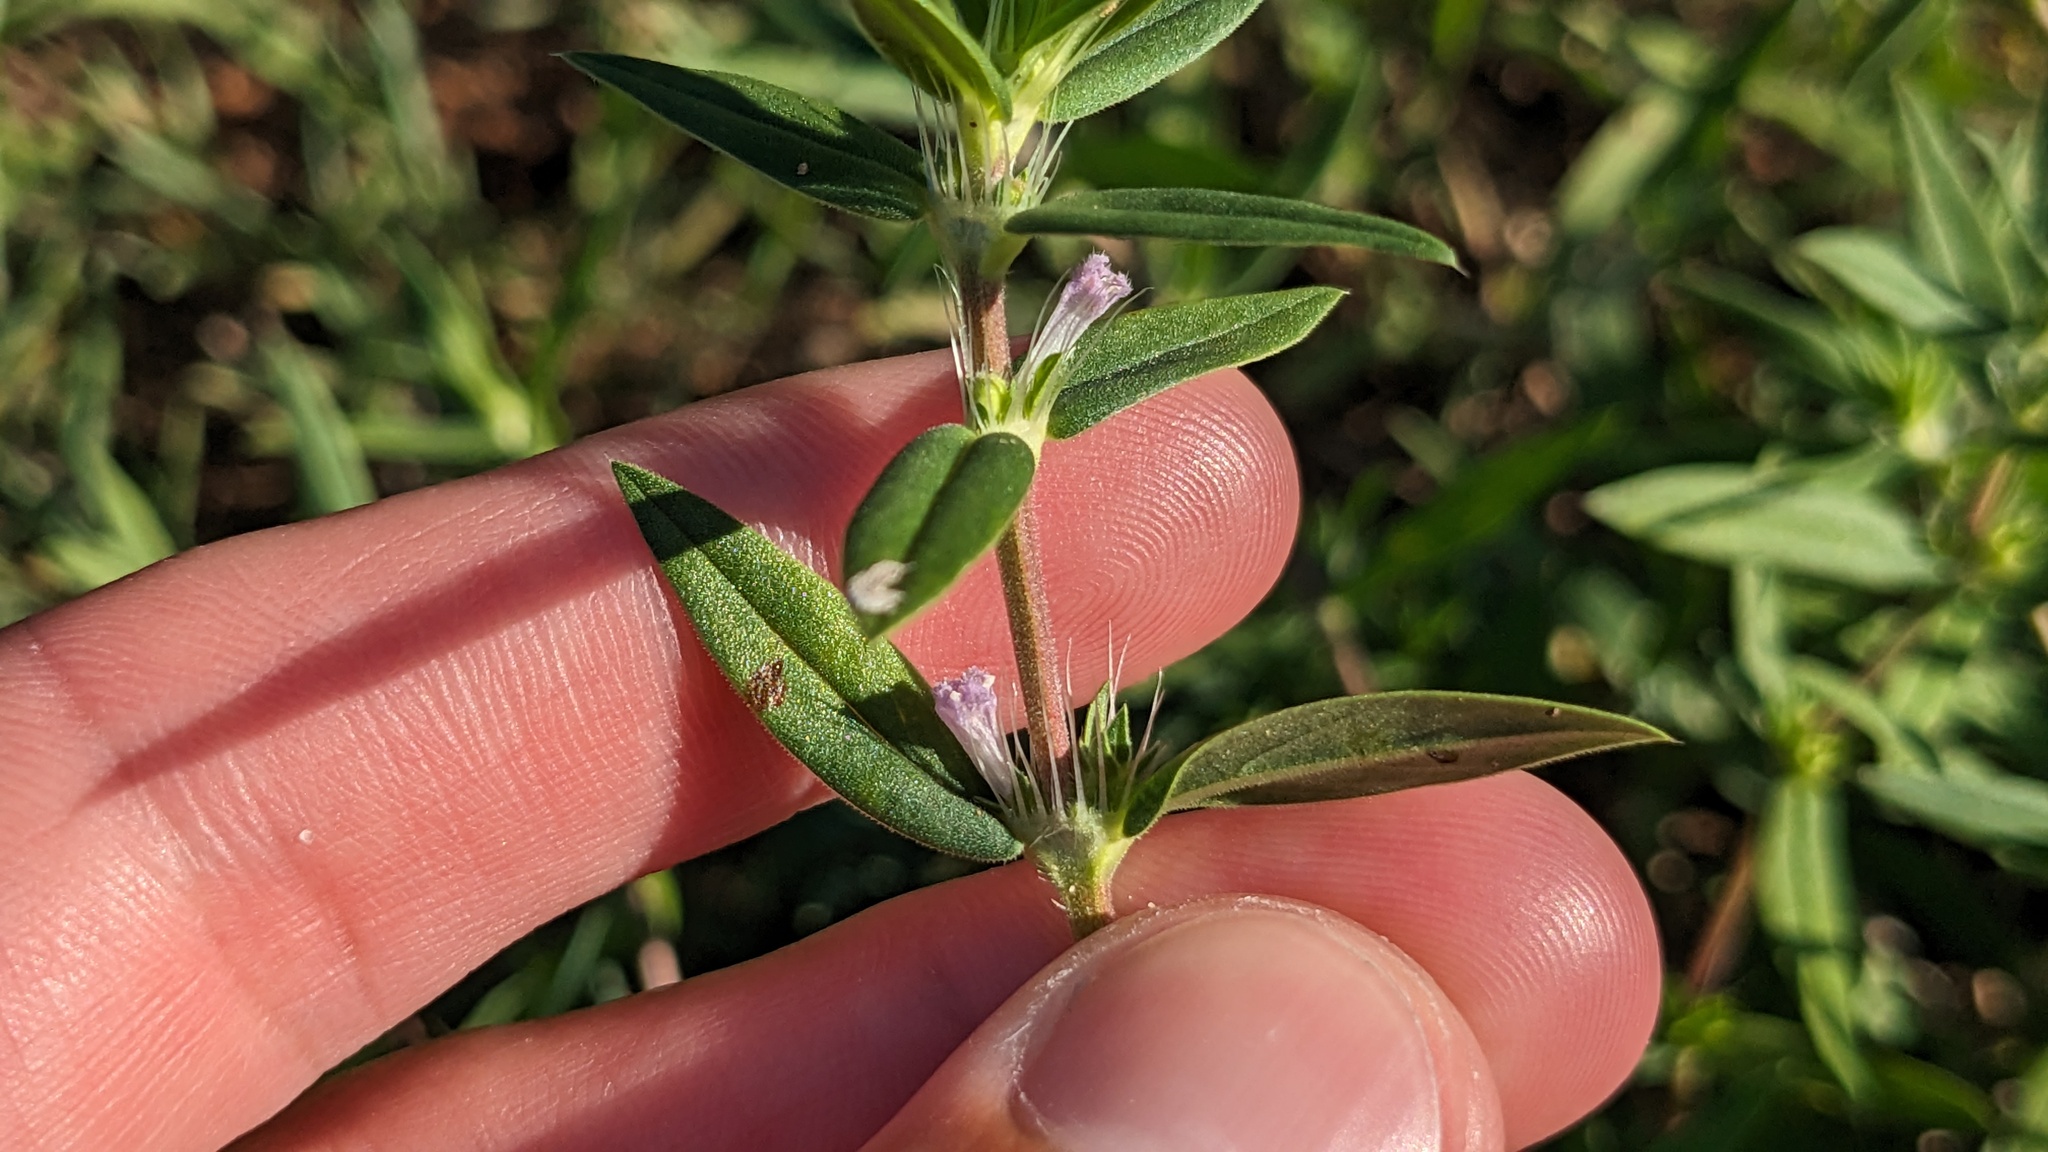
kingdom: Plantae
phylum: Tracheophyta
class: Magnoliopsida
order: Gentianales
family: Rubiaceae
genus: Hexasepalum
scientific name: Hexasepalum teres
